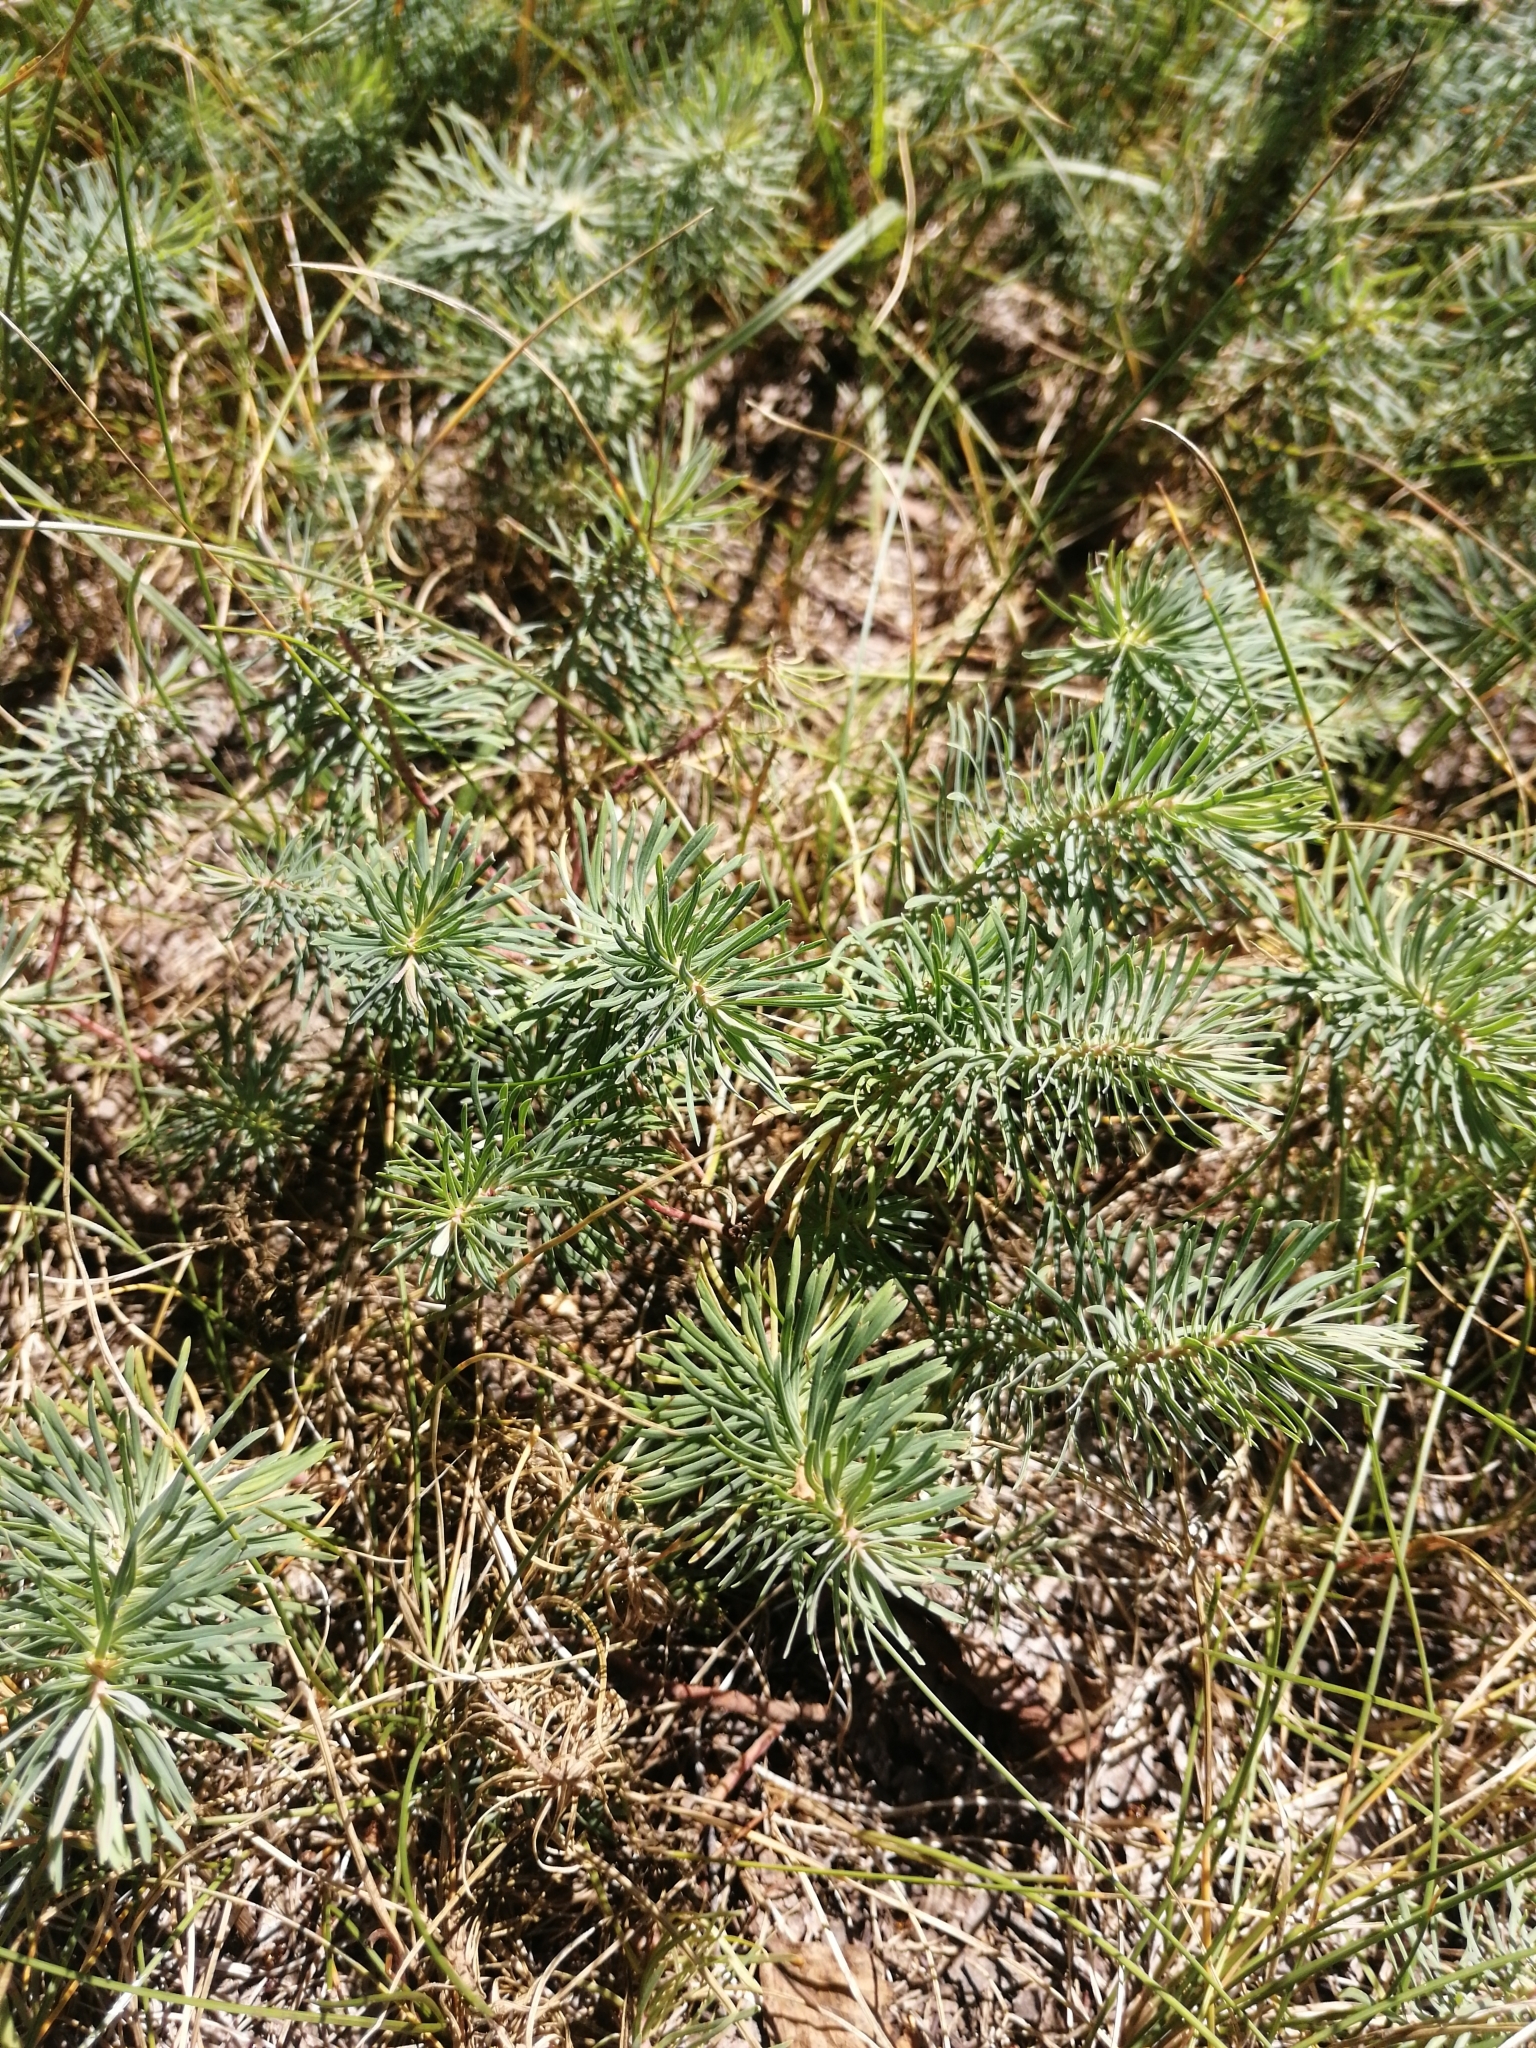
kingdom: Plantae
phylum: Tracheophyta
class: Magnoliopsida
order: Malpighiales
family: Euphorbiaceae
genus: Euphorbia
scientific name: Euphorbia cyparissias
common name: Cypress spurge
